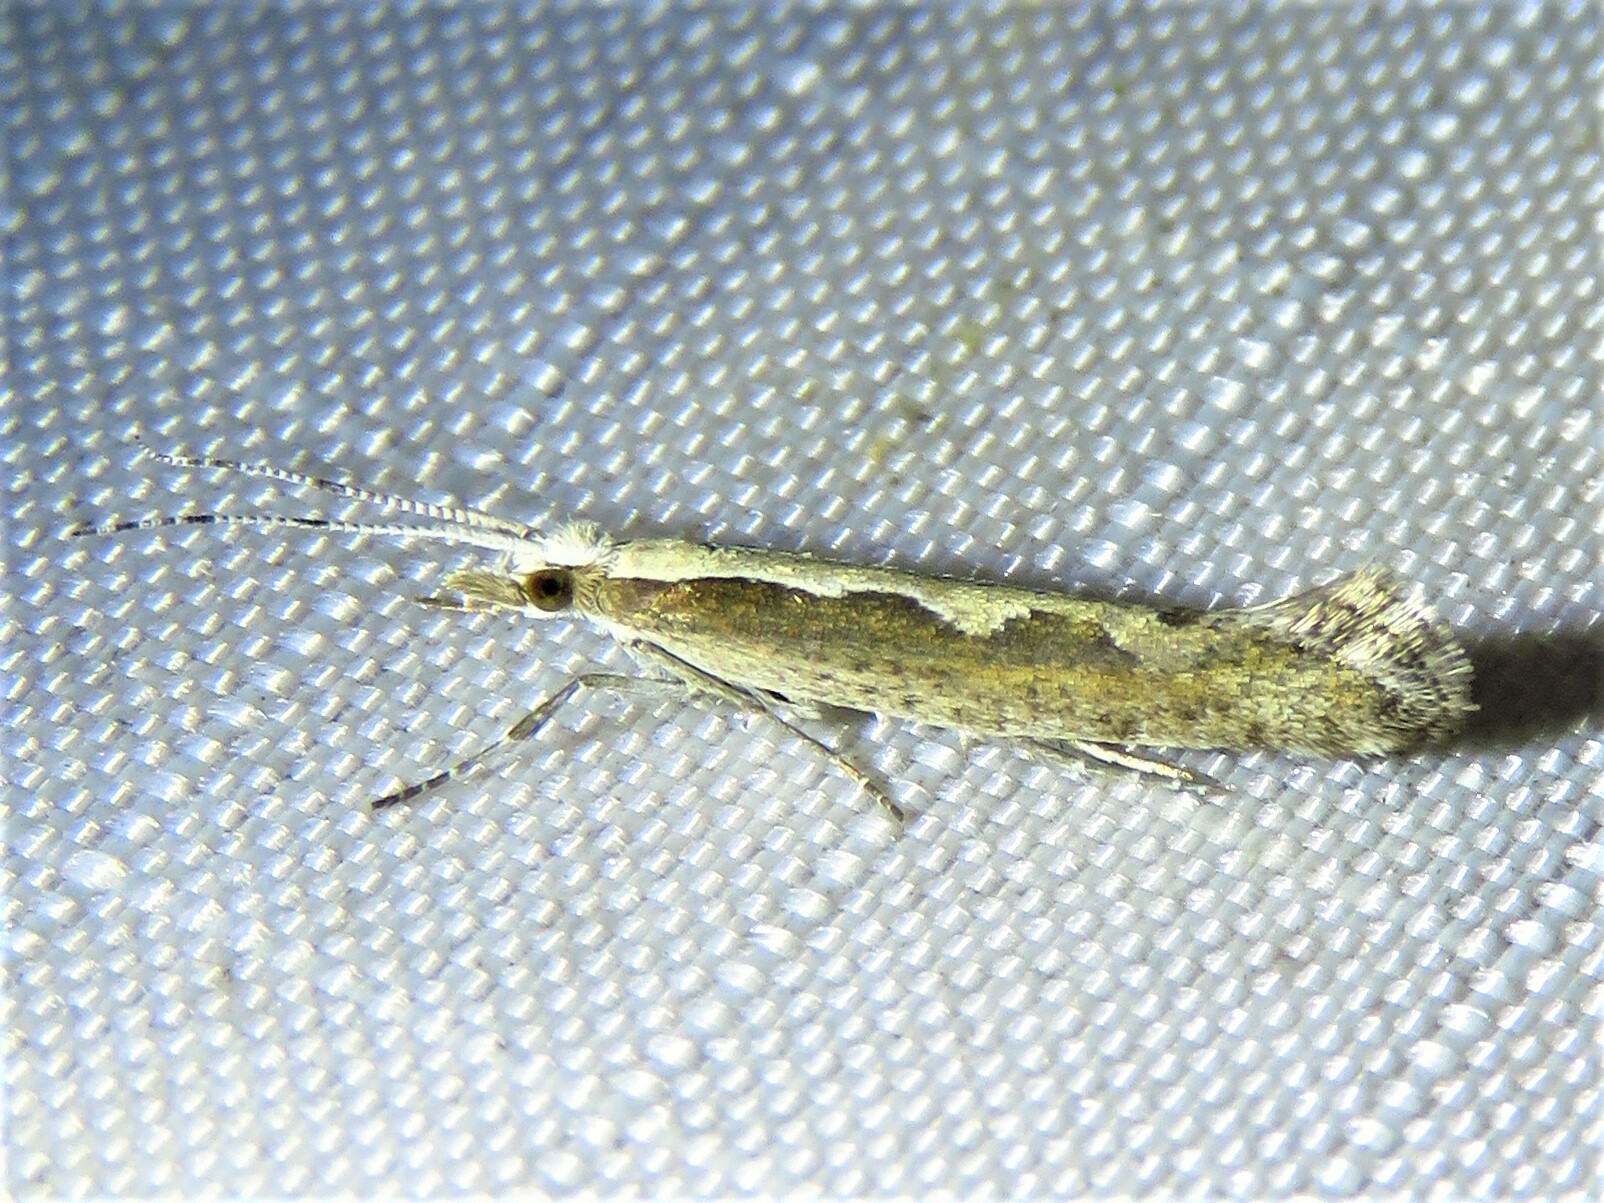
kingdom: Animalia
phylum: Arthropoda
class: Insecta
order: Lepidoptera
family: Plutellidae
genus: Plutella
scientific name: Plutella xylostella
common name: Diamond-back moth
